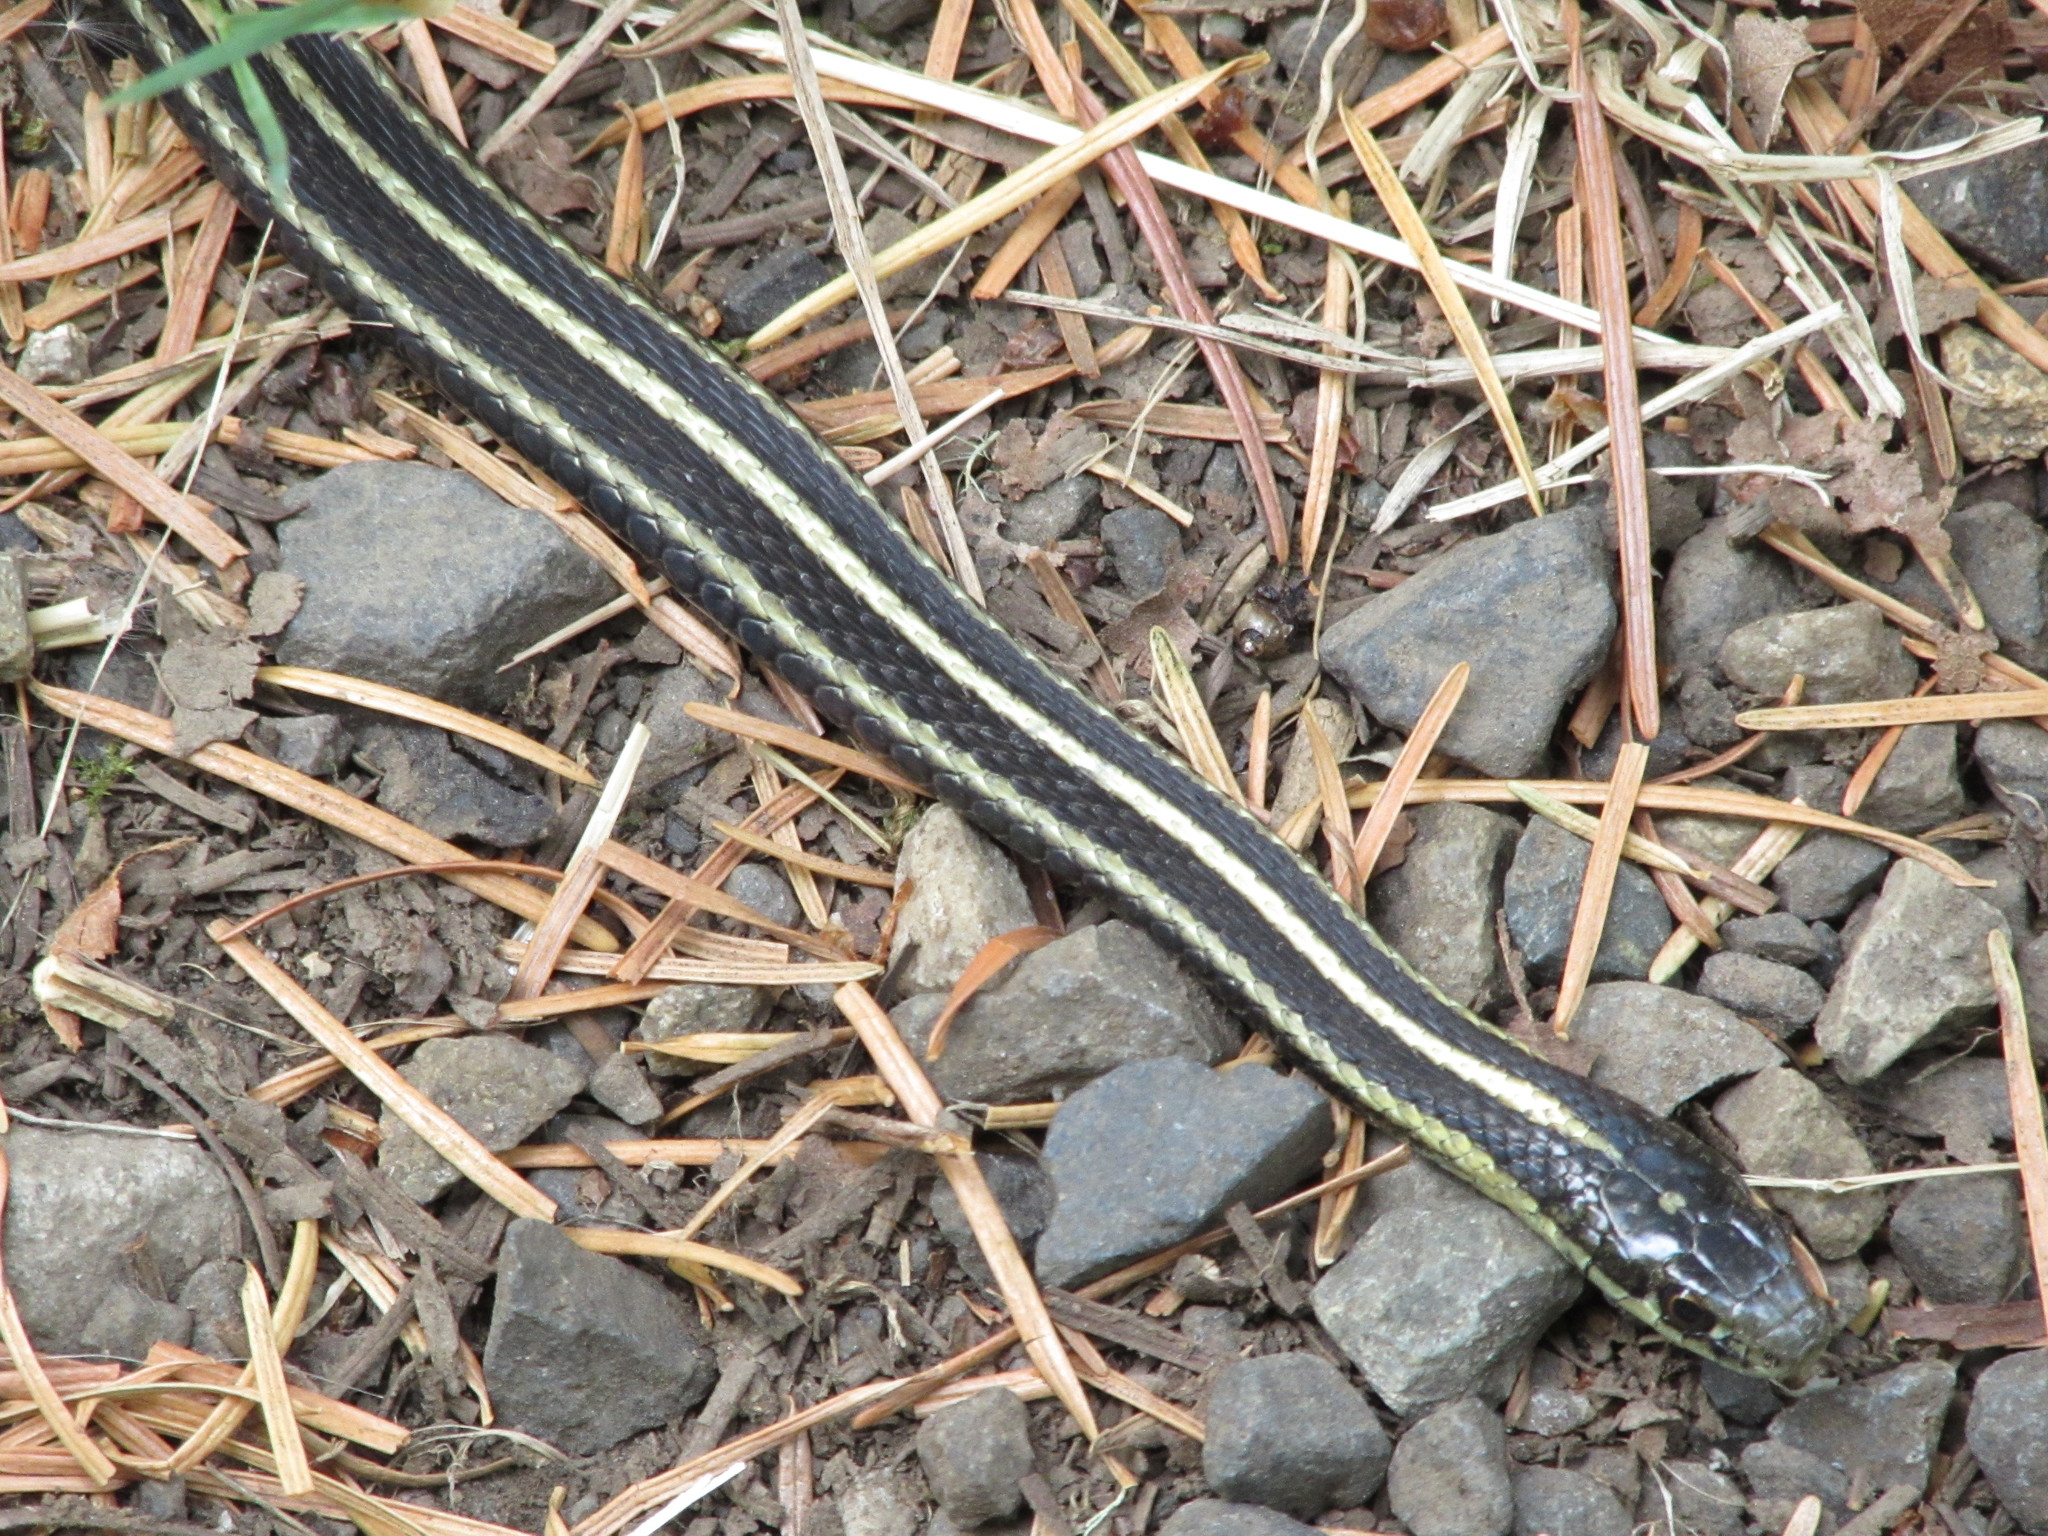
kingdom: Animalia
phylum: Chordata
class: Squamata
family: Colubridae
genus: Thamnophis
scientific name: Thamnophis ordinoides
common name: Northwestern garter snake
